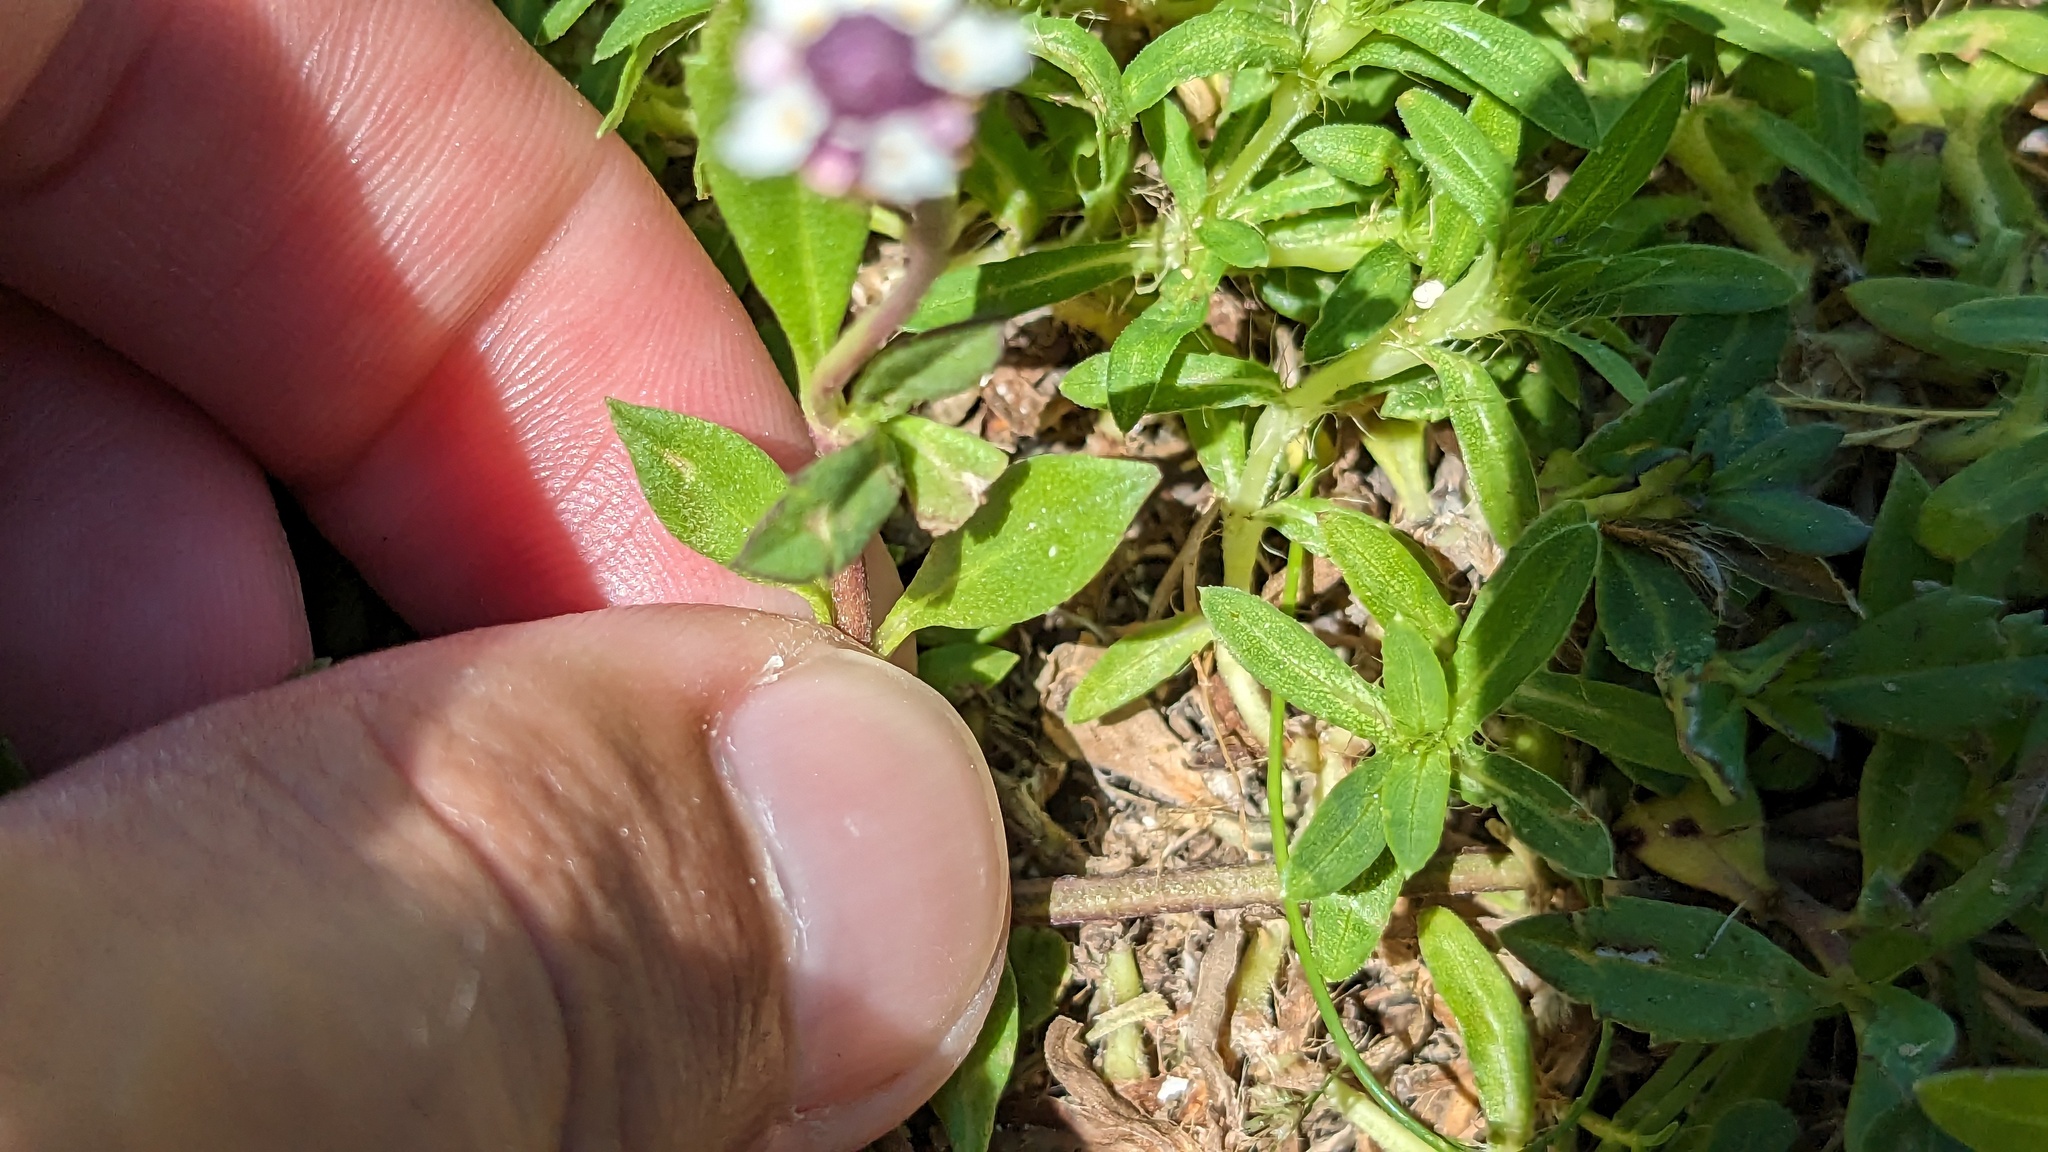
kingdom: Plantae
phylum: Tracheophyta
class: Magnoliopsida
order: Lamiales
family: Verbenaceae
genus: Phyla
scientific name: Phyla nodiflora
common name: Frogfruit
